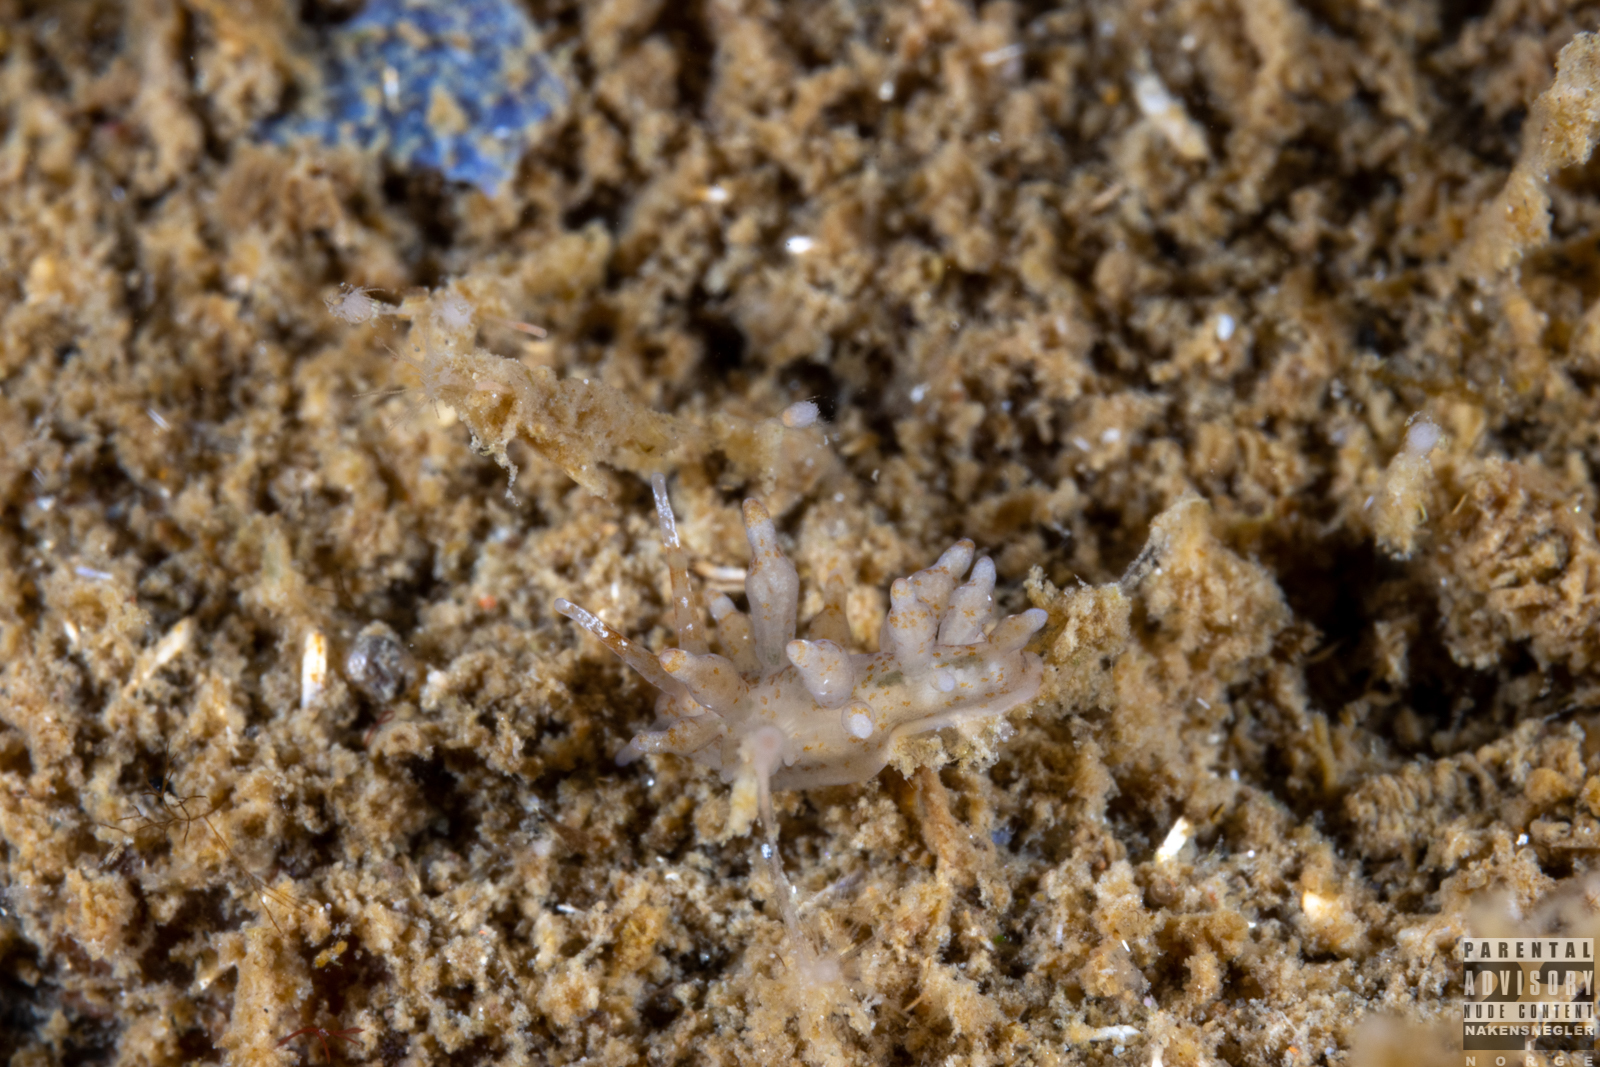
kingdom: Animalia
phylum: Mollusca
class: Gastropoda
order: Nudibranchia
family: Eubranchidae
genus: Eubranchus
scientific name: Eubranchus rupium
